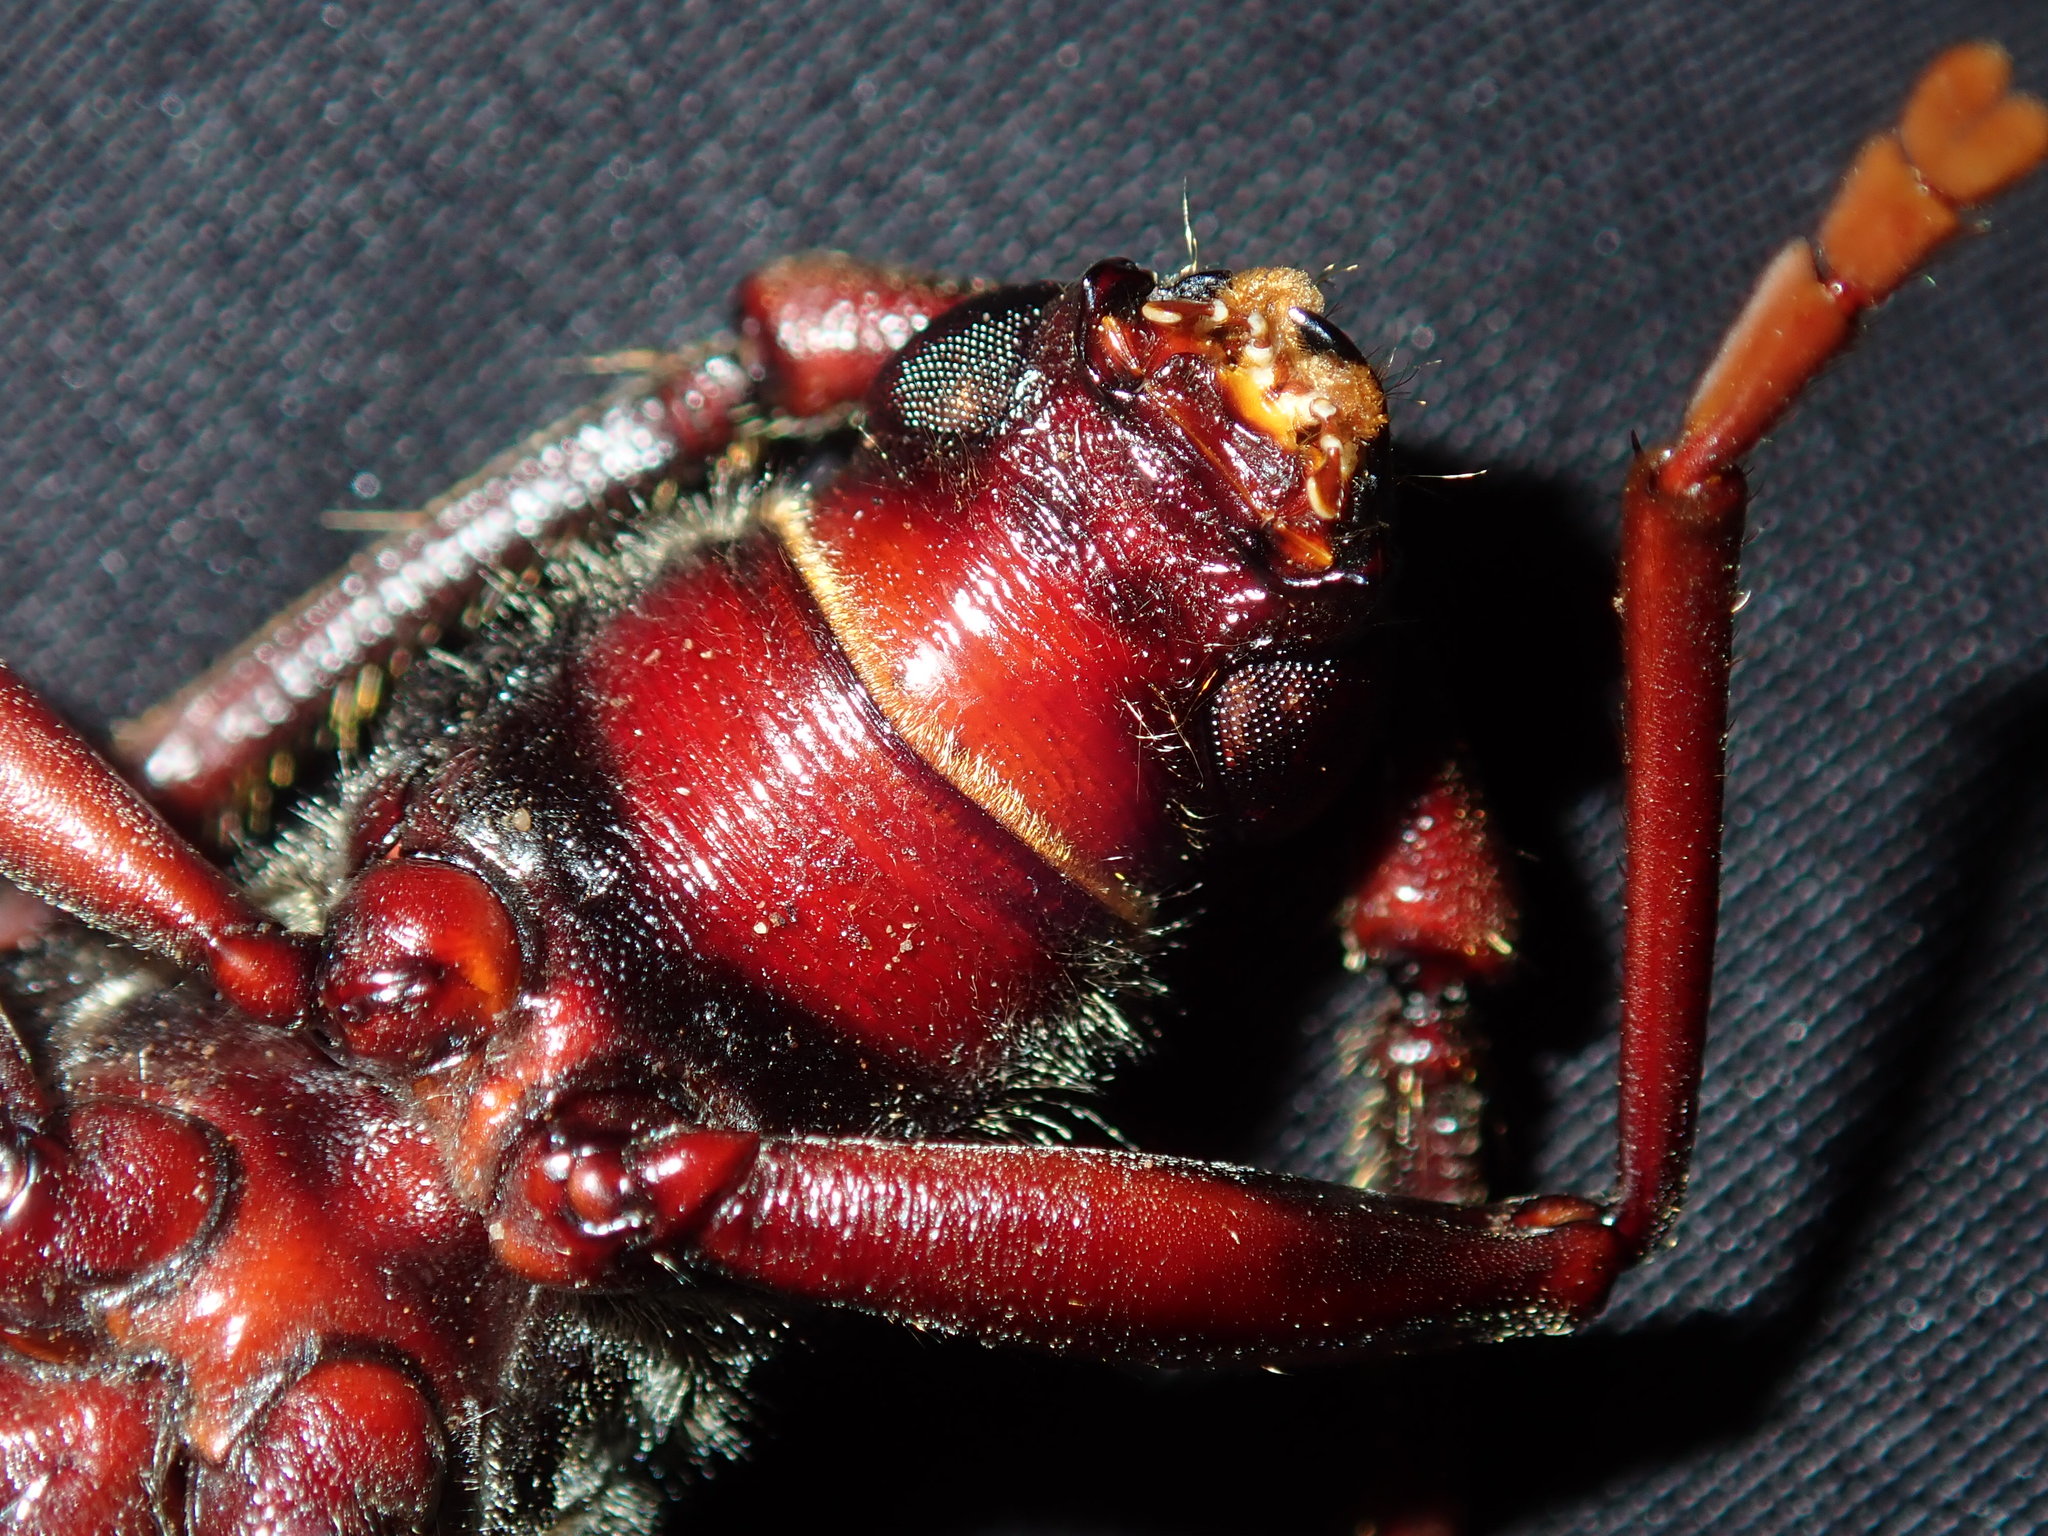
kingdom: Animalia
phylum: Arthropoda
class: Insecta
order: Coleoptera
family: Cerambycidae
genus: Phoracantha
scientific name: Phoracantha tricuspis
